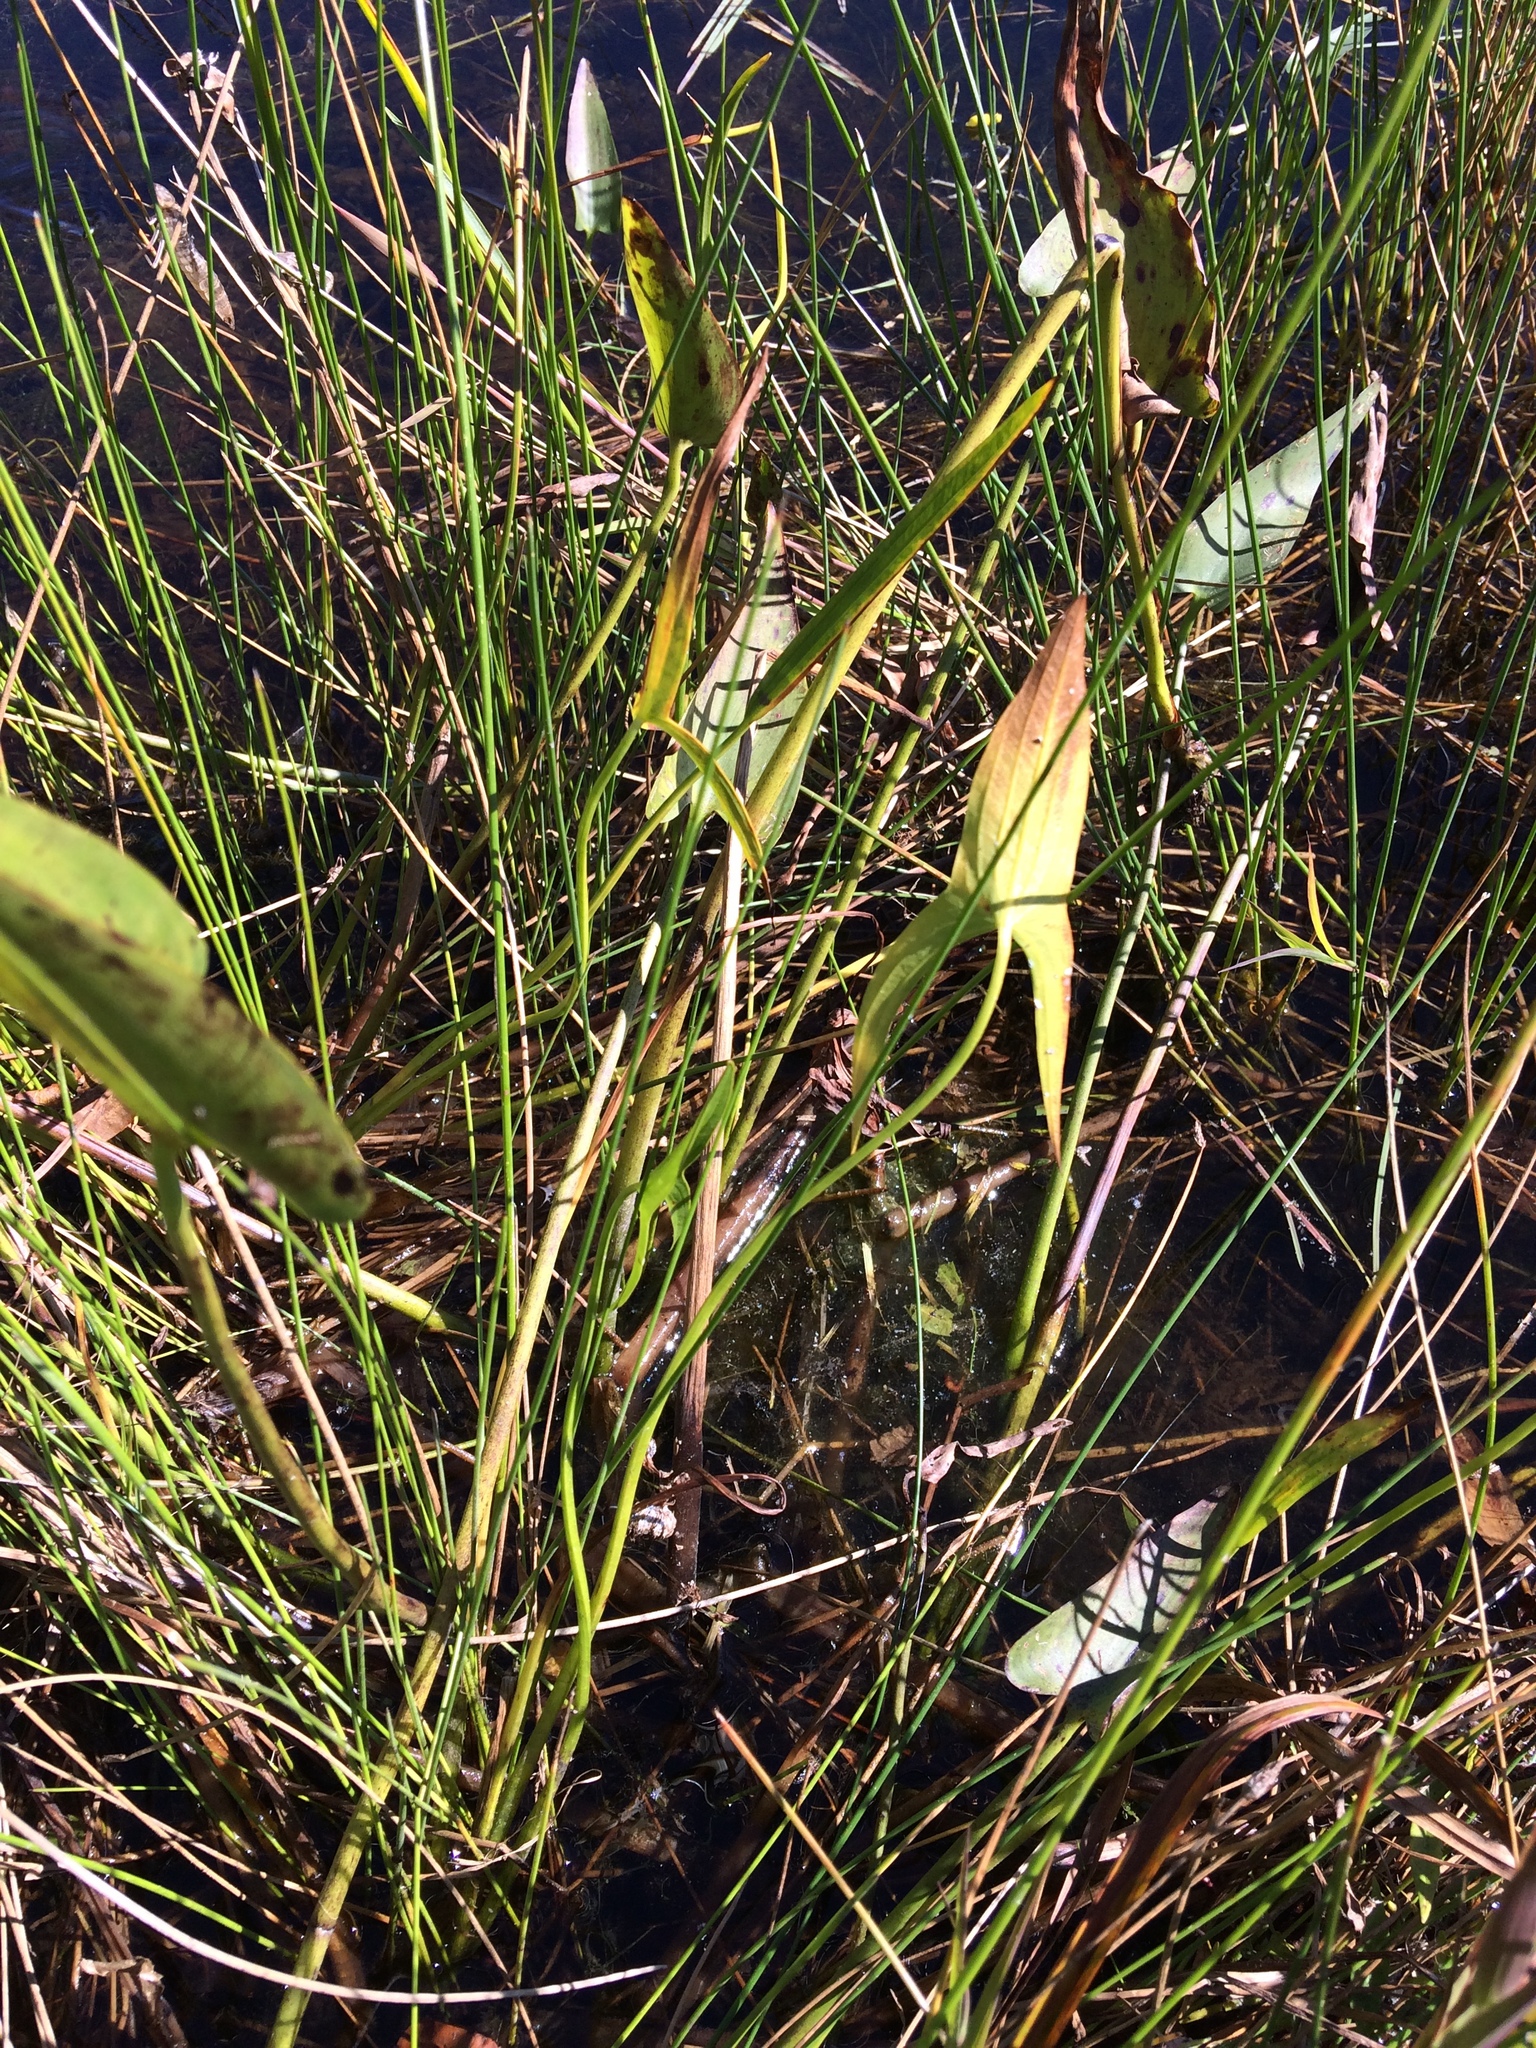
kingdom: Plantae
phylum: Tracheophyta
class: Liliopsida
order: Alismatales
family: Alismataceae
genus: Sagittaria
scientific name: Sagittaria latifolia
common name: Duck-potato
